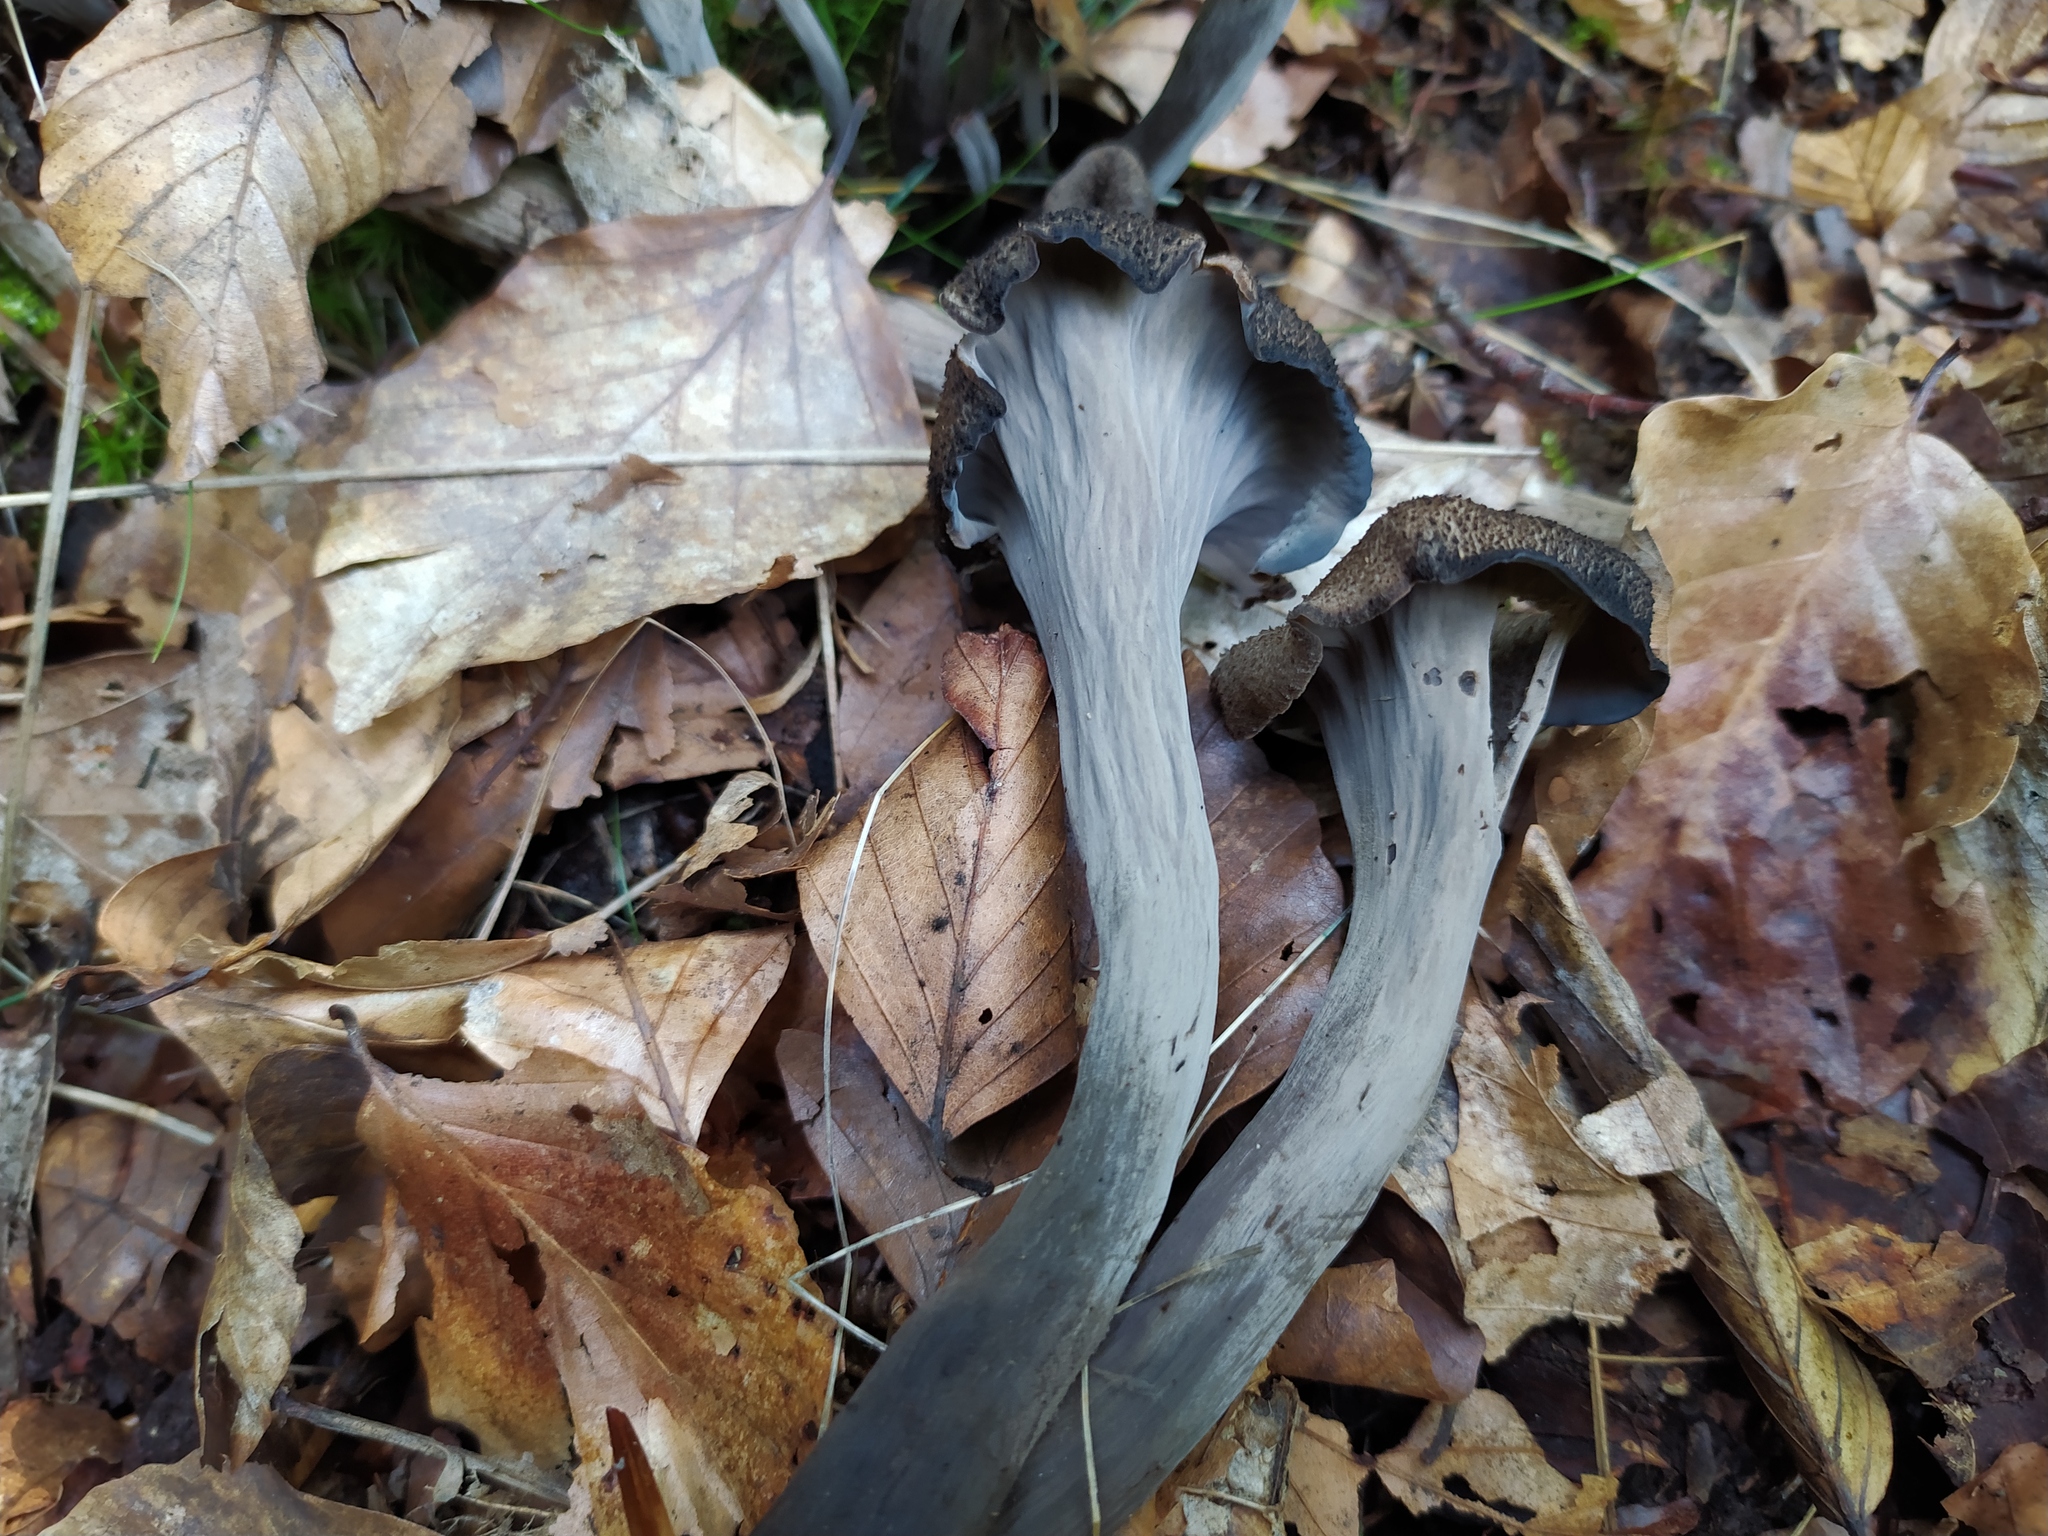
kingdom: Fungi
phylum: Basidiomycota
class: Agaricomycetes
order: Cantharellales
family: Hydnaceae
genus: Craterellus
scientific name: Craterellus cornucopioides
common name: Horn of plenty
